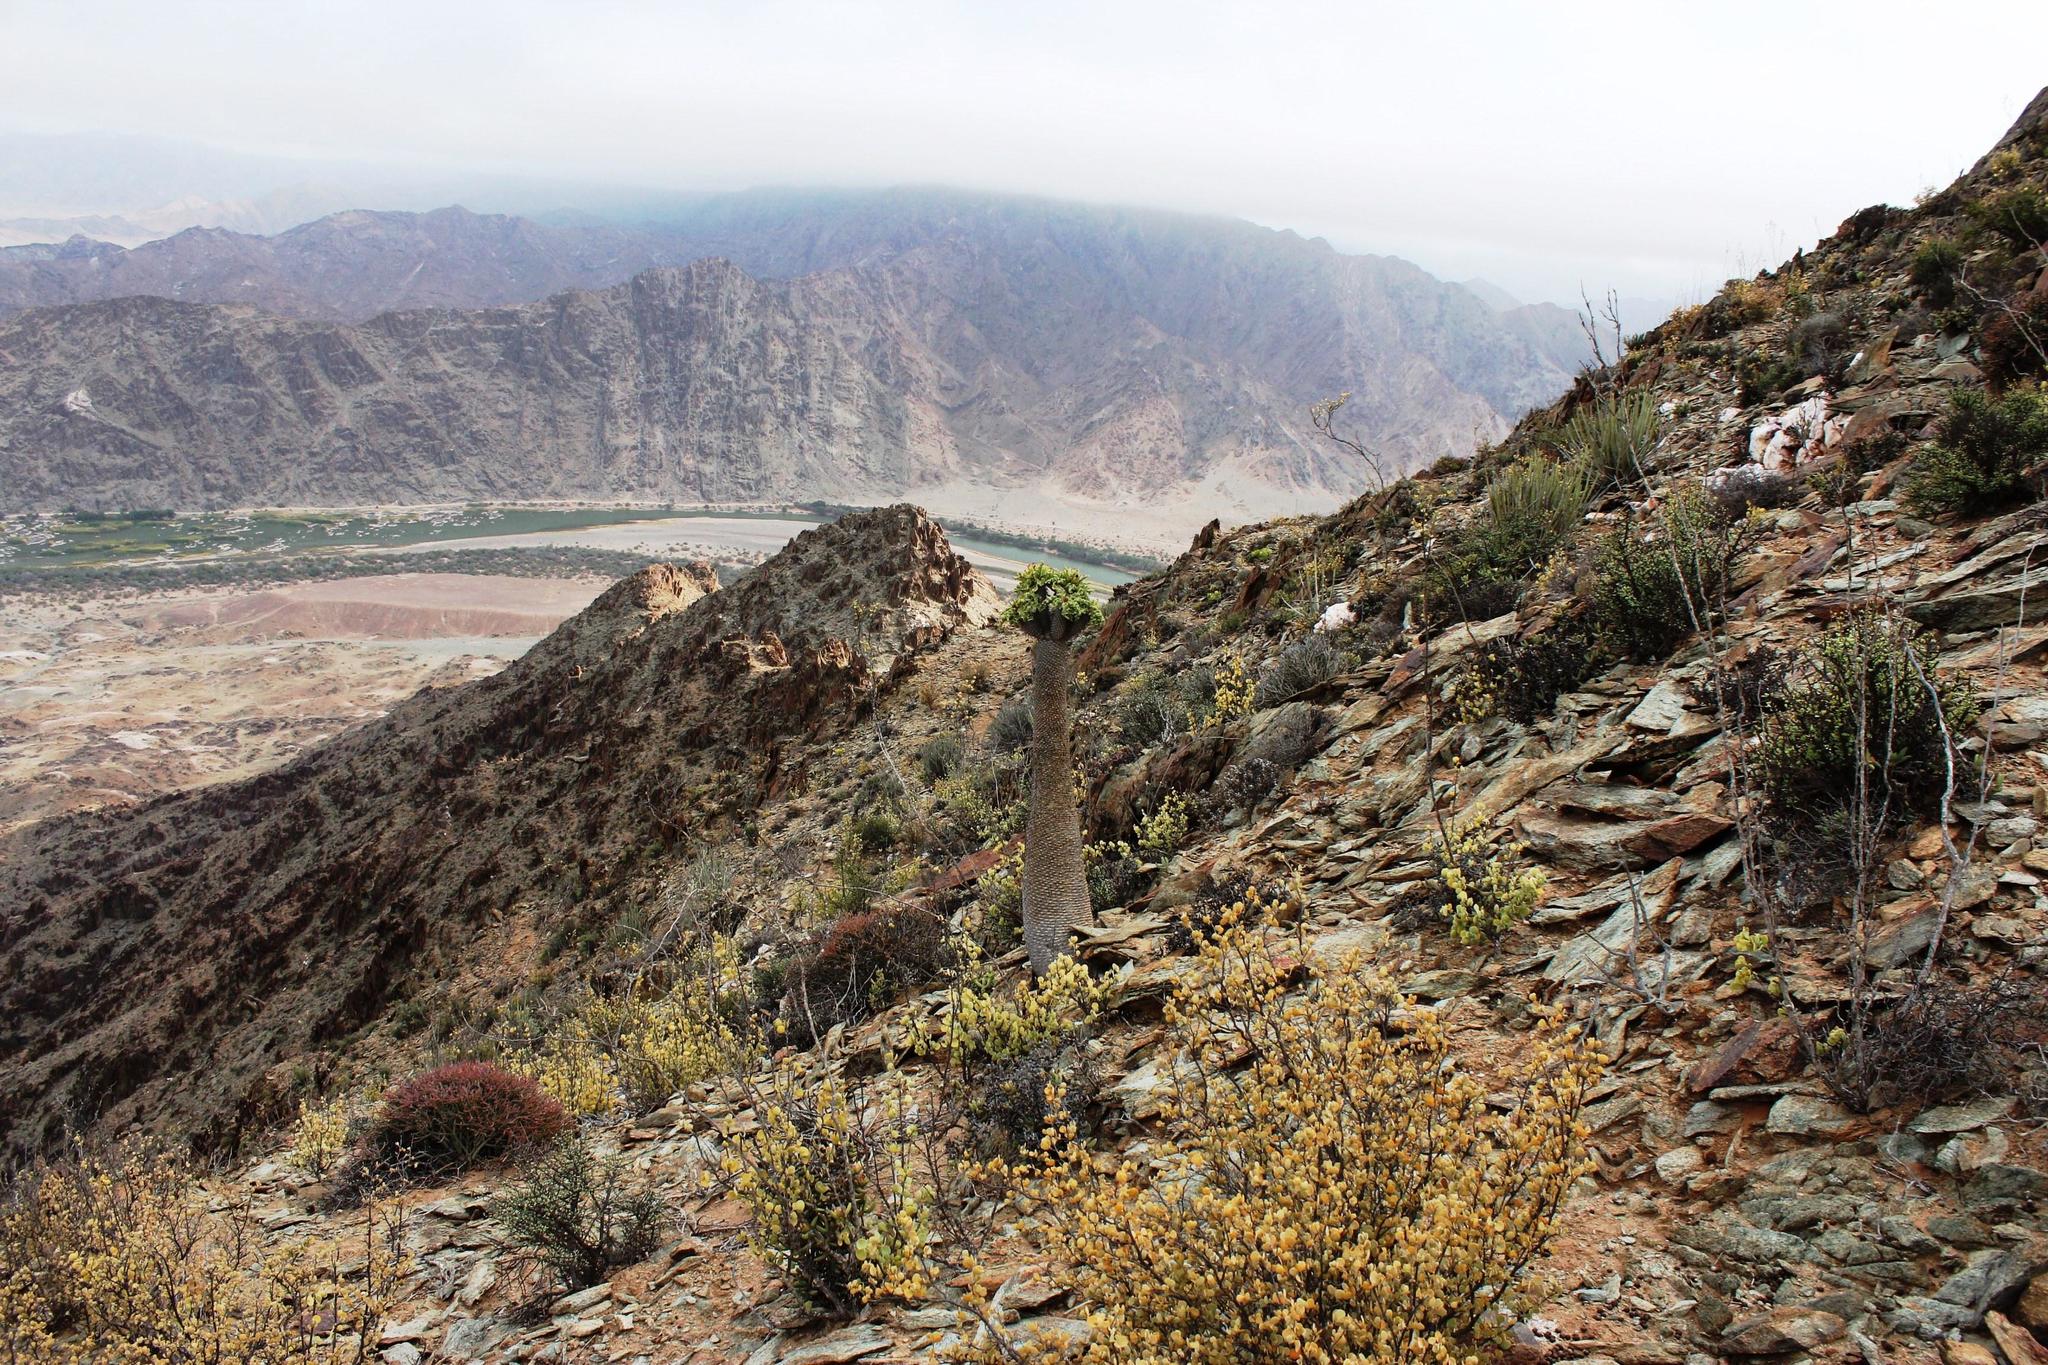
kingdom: Plantae
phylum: Tracheophyta
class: Magnoliopsida
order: Gentianales
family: Apocynaceae
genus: Pachypodium
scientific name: Pachypodium namaquanum
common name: Elephant's trunk
